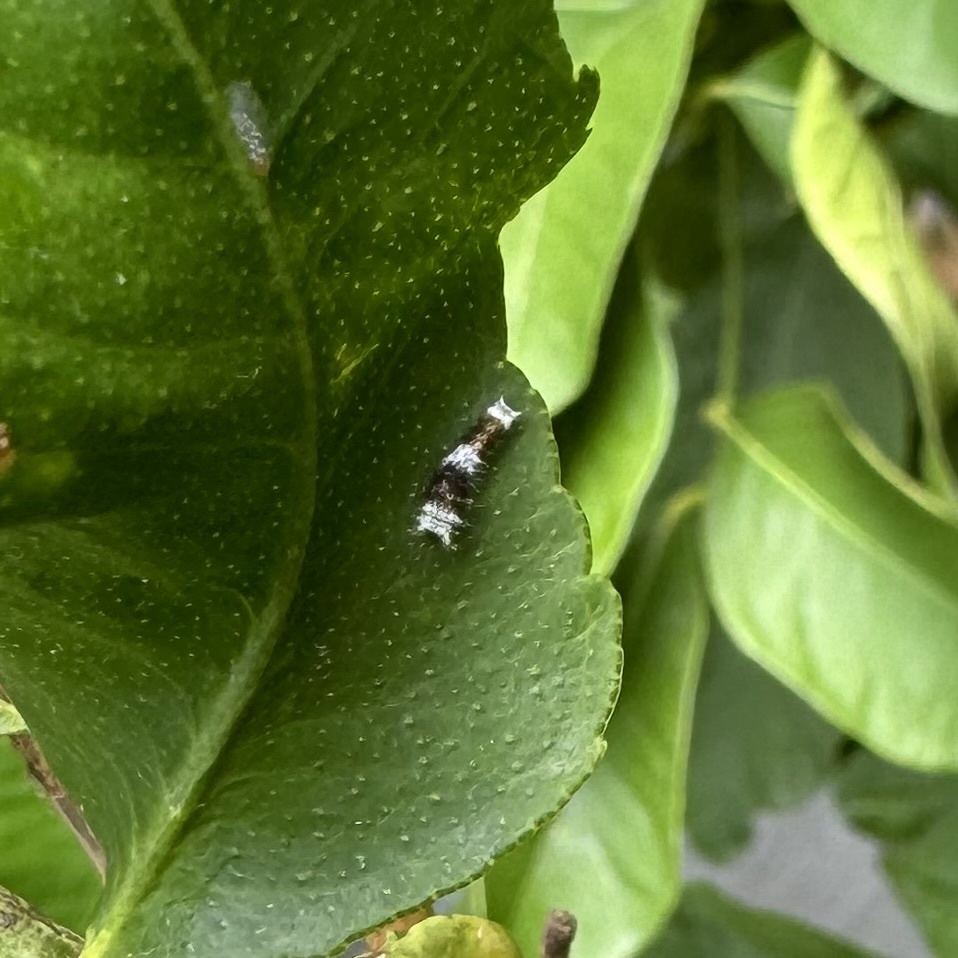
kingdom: Animalia
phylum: Arthropoda
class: Insecta
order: Lepidoptera
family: Papilionidae
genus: Papilio
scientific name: Papilio aegeus
